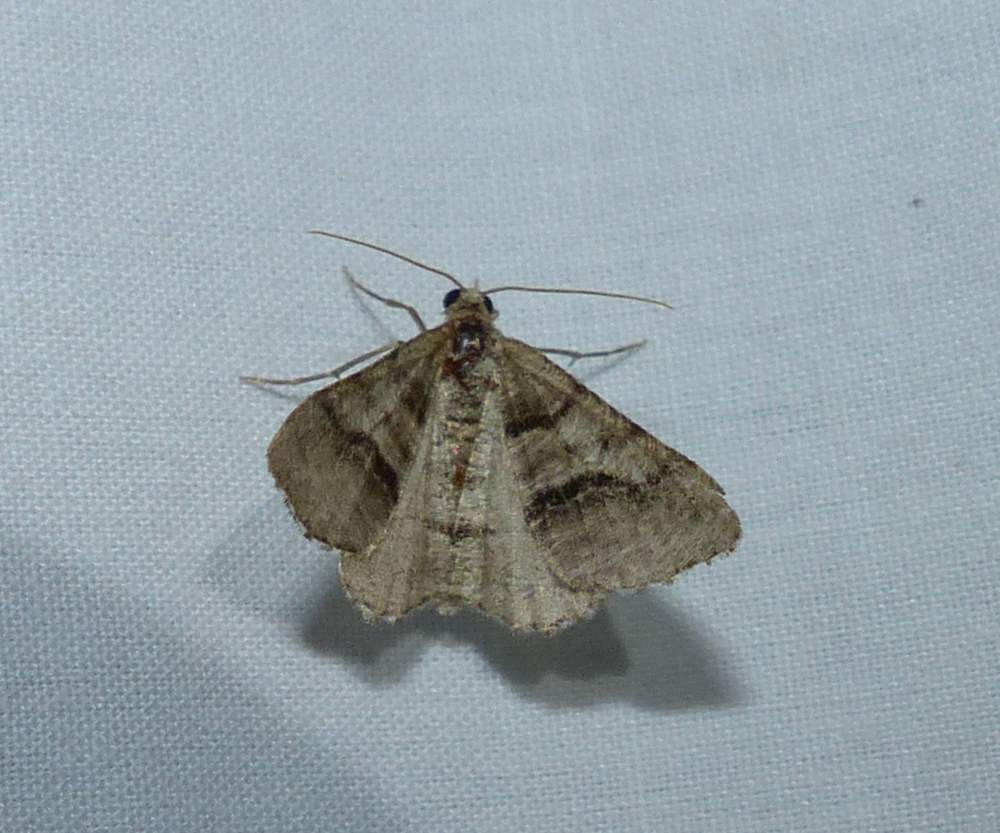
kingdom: Animalia
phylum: Arthropoda
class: Insecta
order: Lepidoptera
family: Geometridae
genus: Digrammia
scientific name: Digrammia continuata
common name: Curve-lined angle
